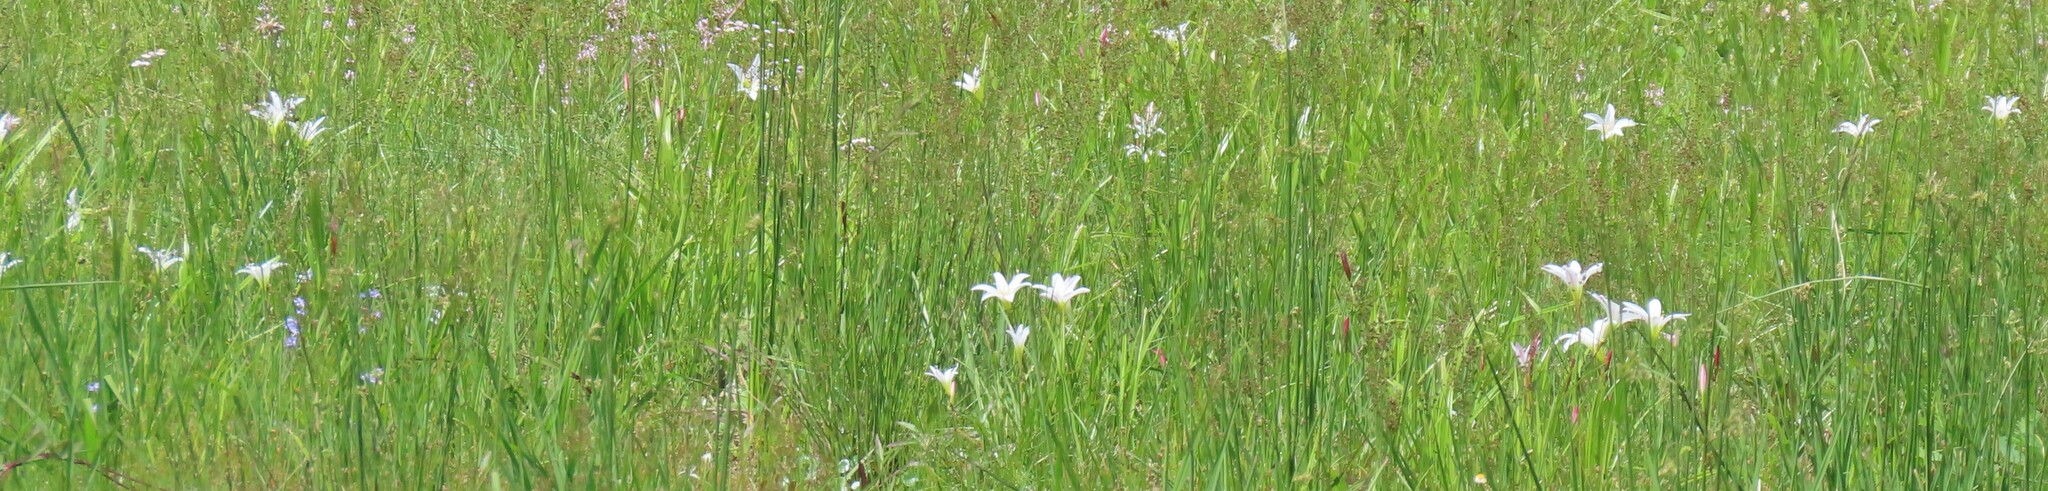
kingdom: Plantae
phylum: Tracheophyta
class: Liliopsida
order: Asparagales
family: Amaryllidaceae
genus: Zephyranthes
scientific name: Zephyranthes atamasco
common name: Atamasco lily
